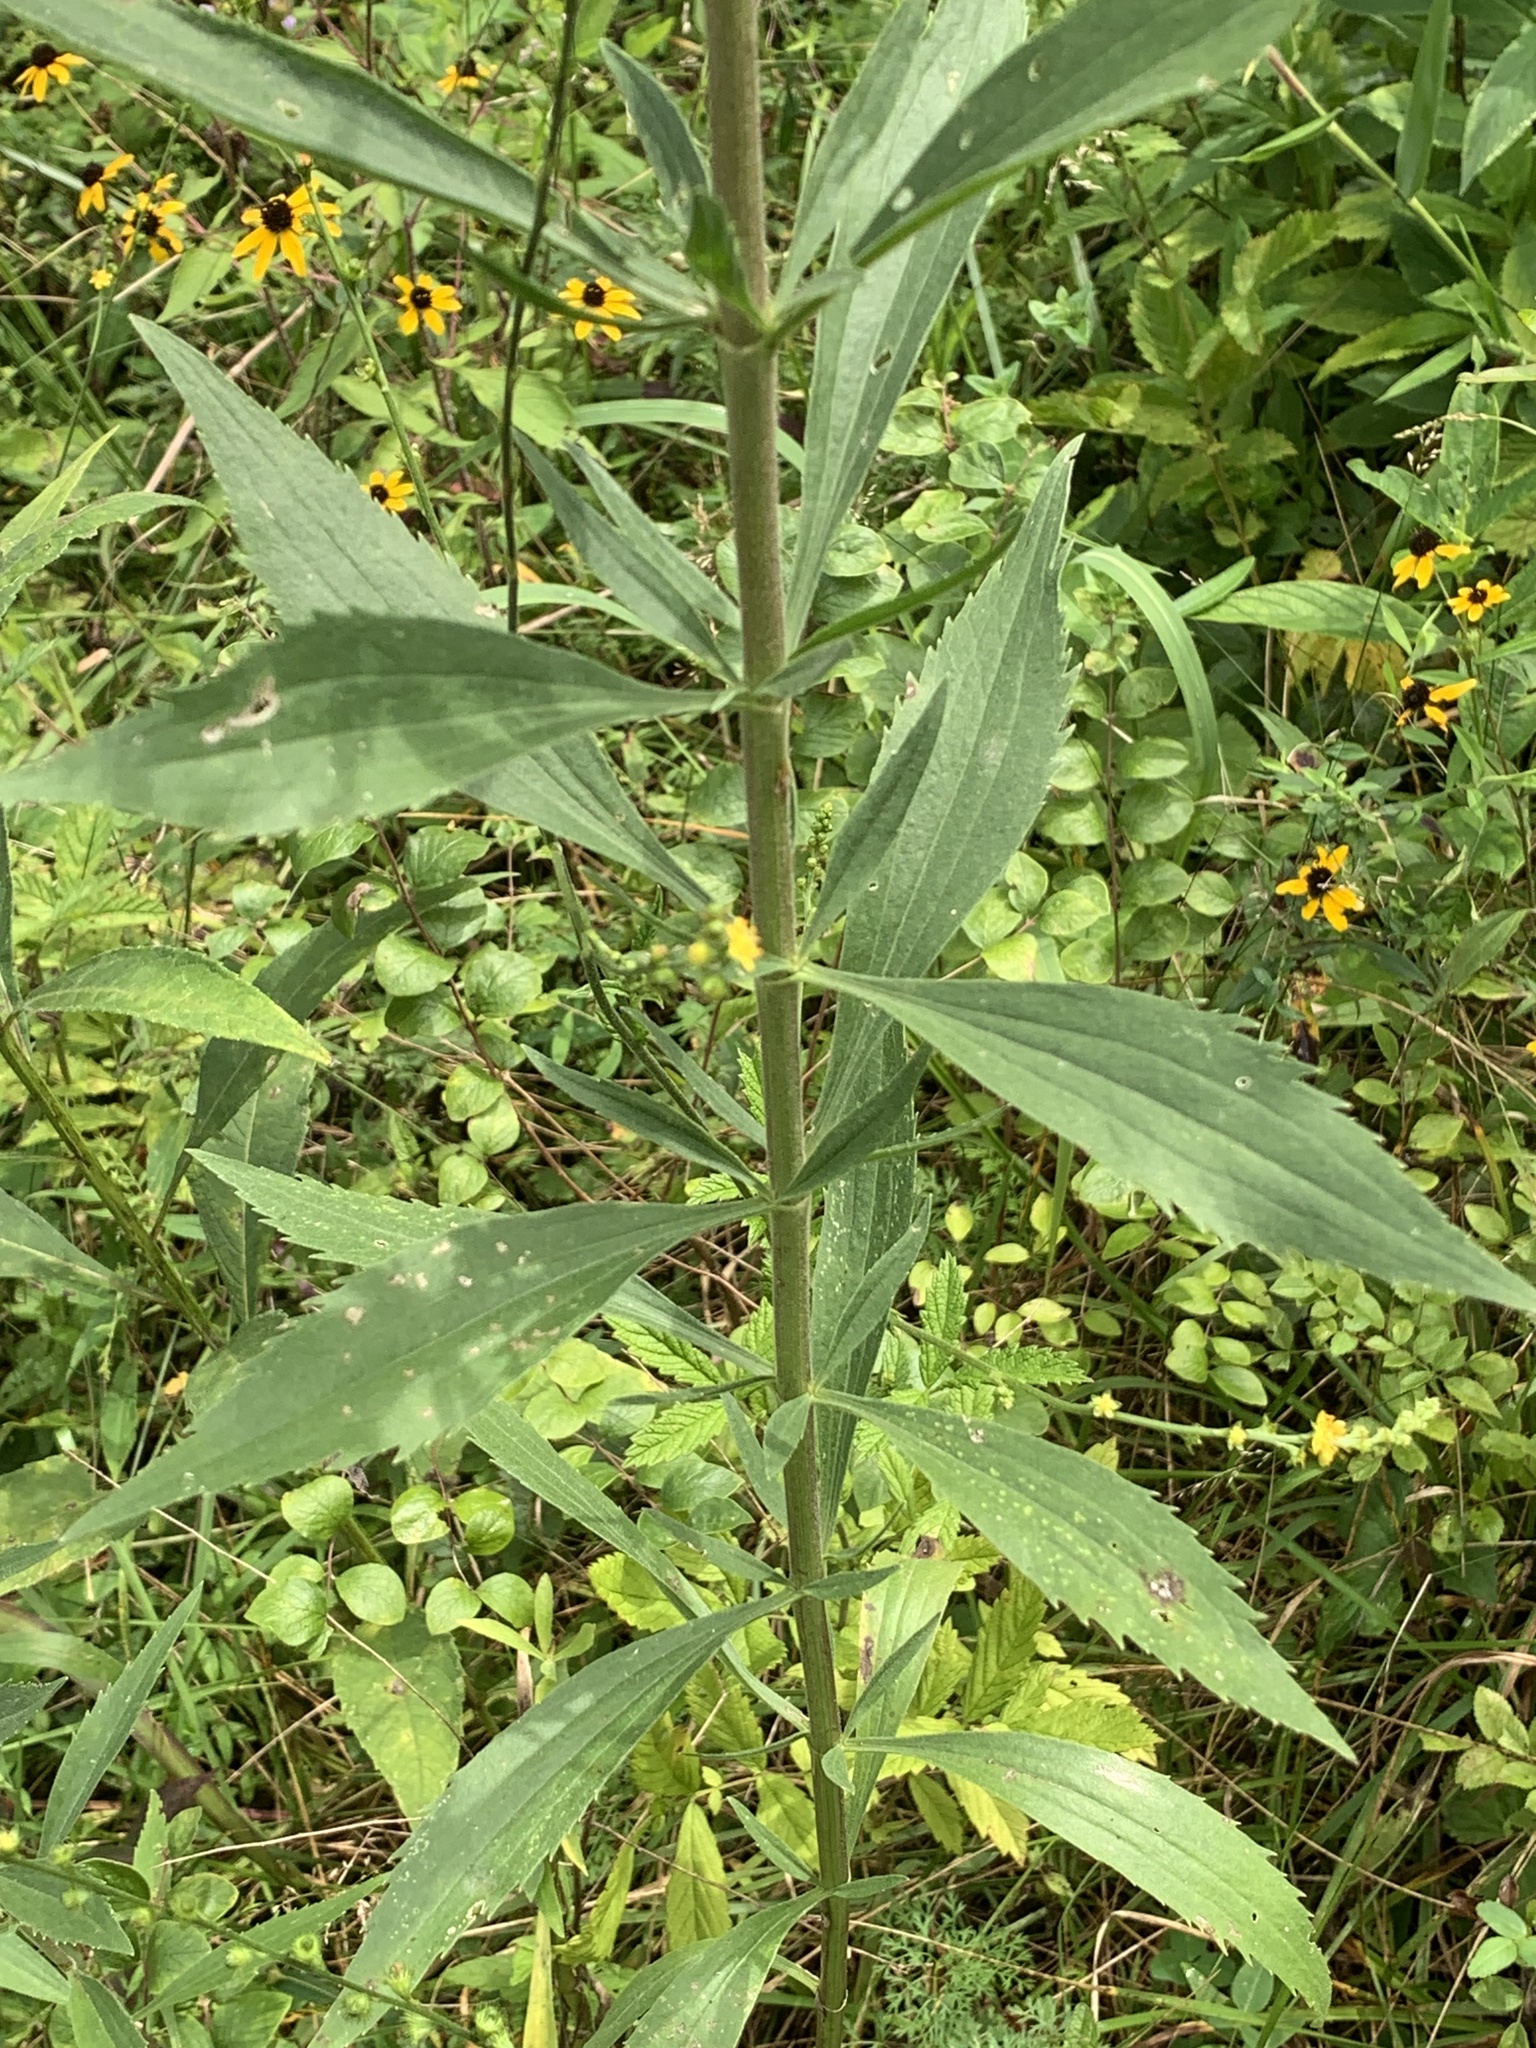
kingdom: Plantae
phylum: Tracheophyta
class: Magnoliopsida
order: Asterales
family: Asteraceae
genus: Eupatorium
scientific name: Eupatorium altissimum
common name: Tall thoroughwort
